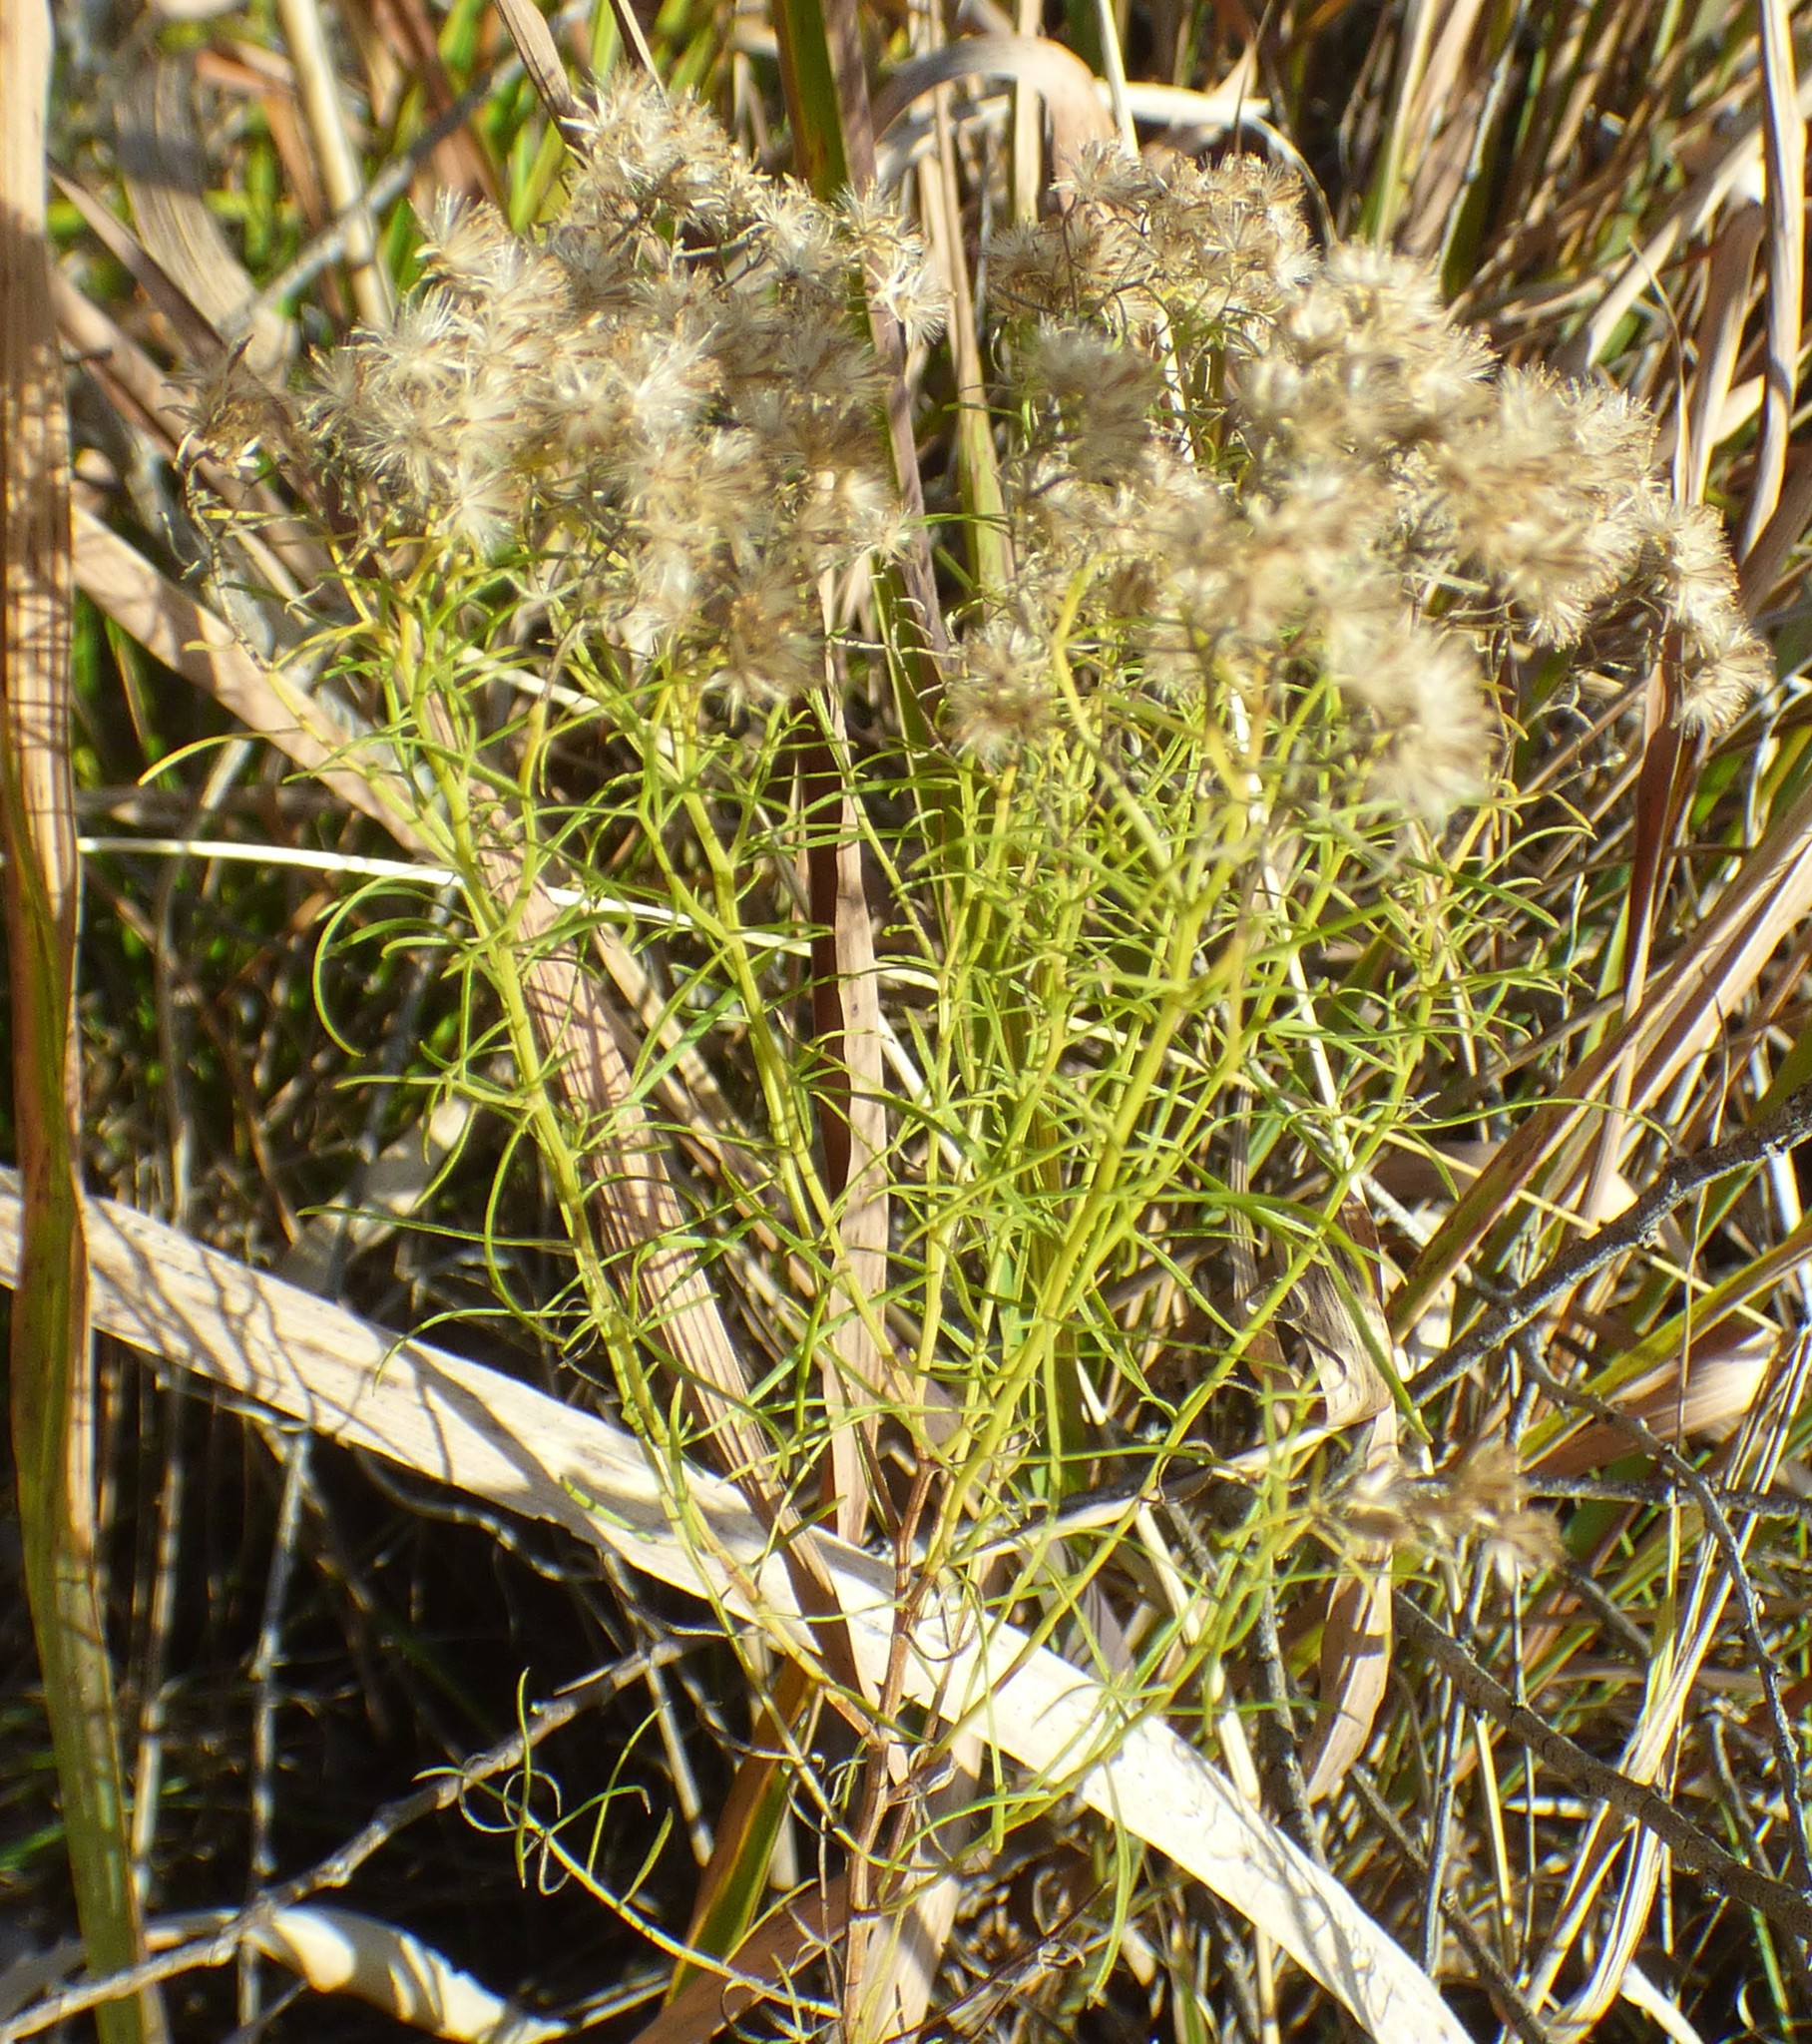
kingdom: Plantae
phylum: Tracheophyta
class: Magnoliopsida
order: Asterales
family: Asteraceae
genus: Euthamia
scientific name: Euthamia caroliniana
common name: Coastal plain goldentop
